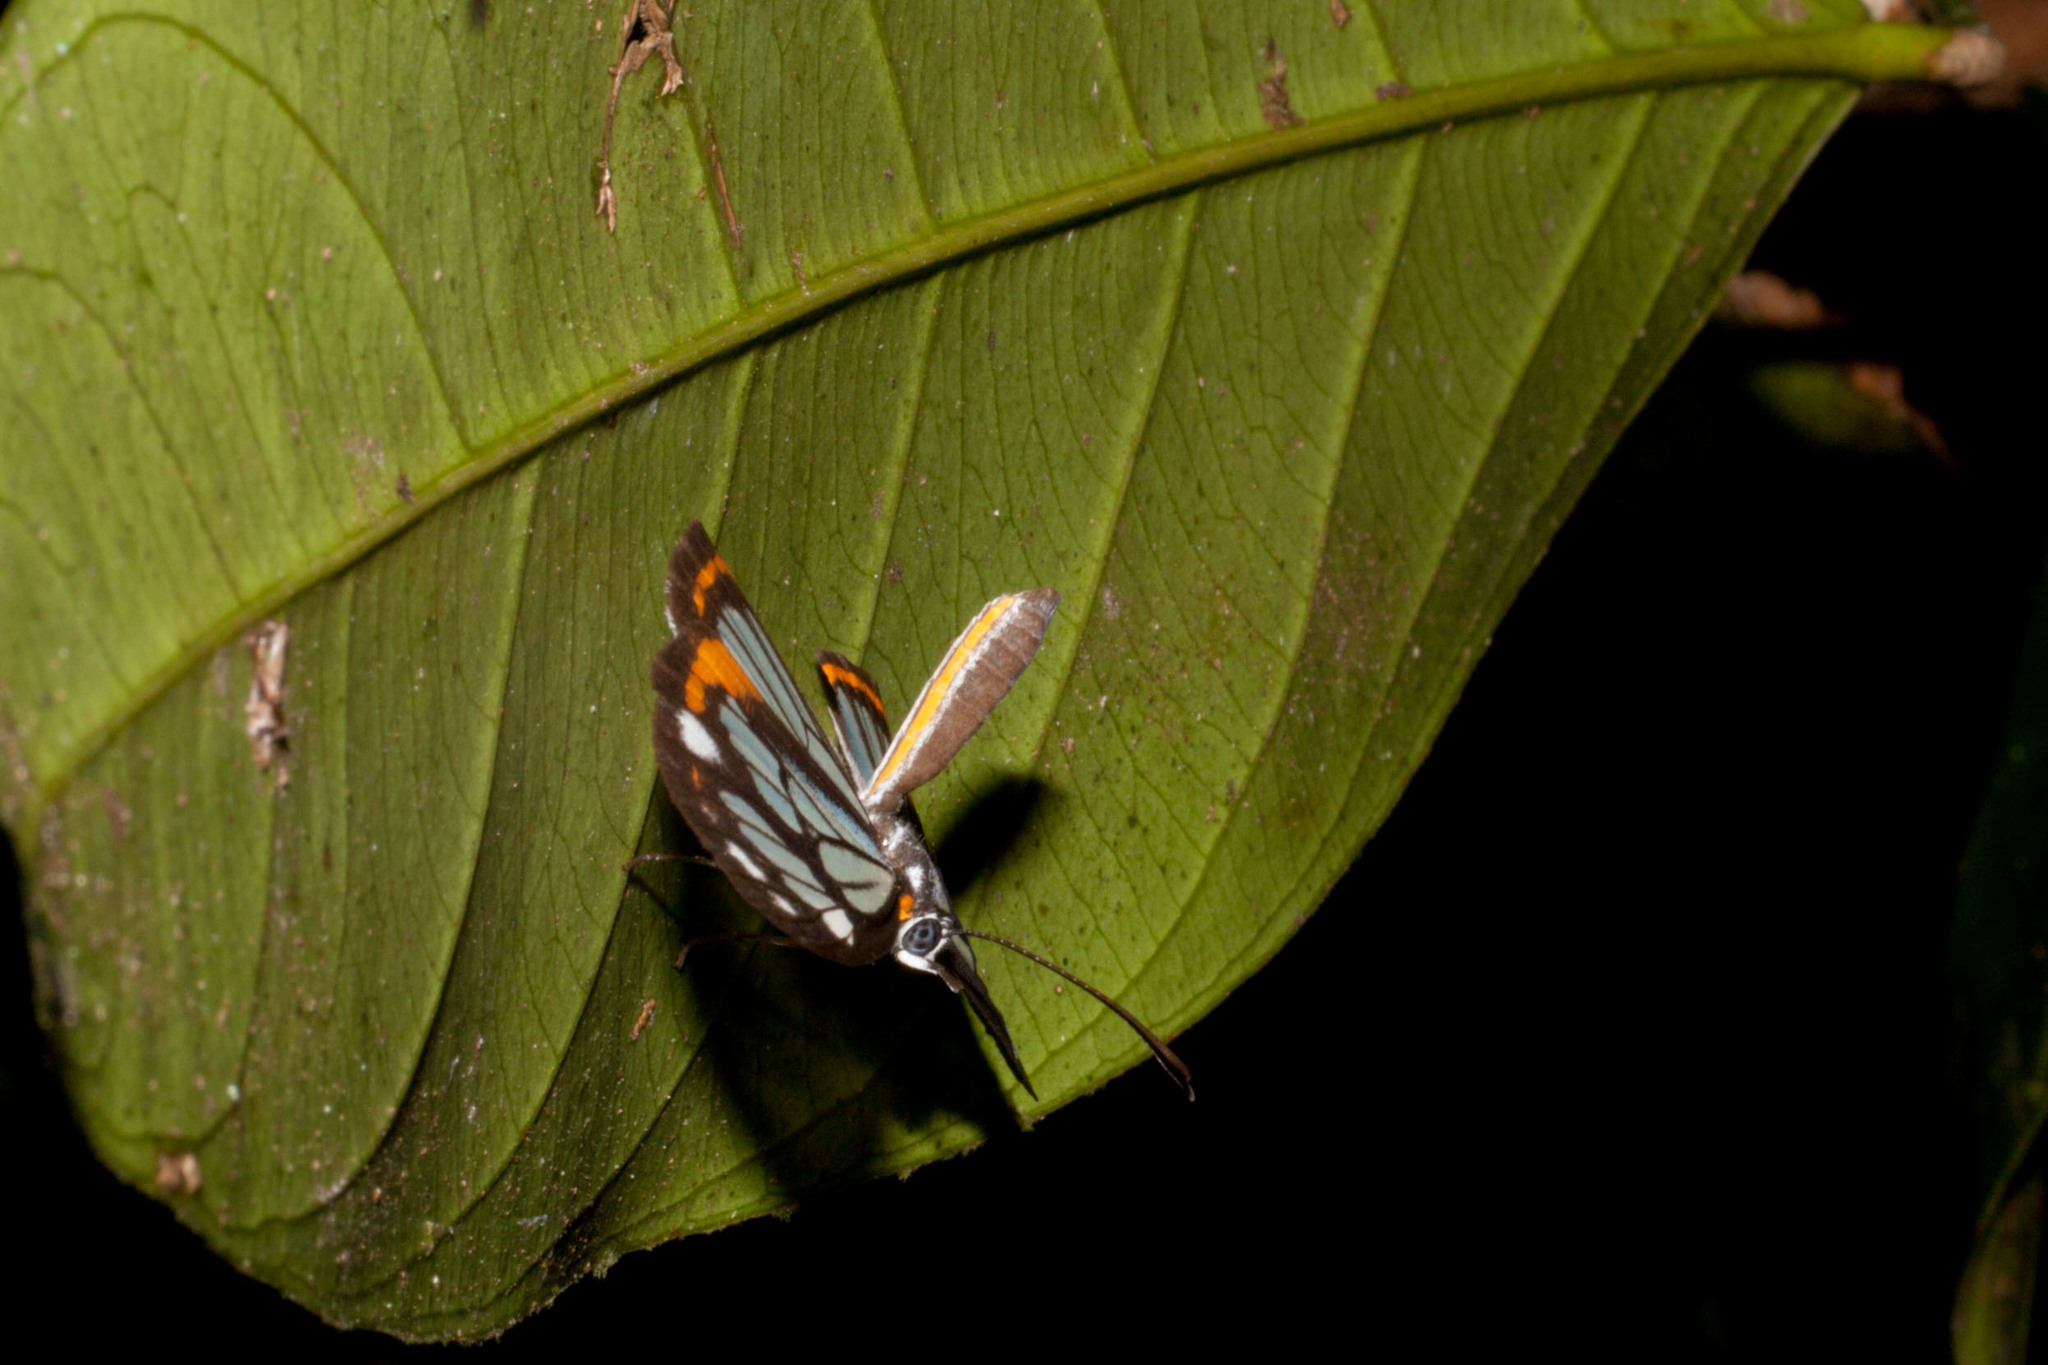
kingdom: Animalia
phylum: Arthropoda
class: Insecta
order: Lepidoptera
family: Riodinidae
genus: Stalachtis
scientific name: Stalachtis zephyritis
